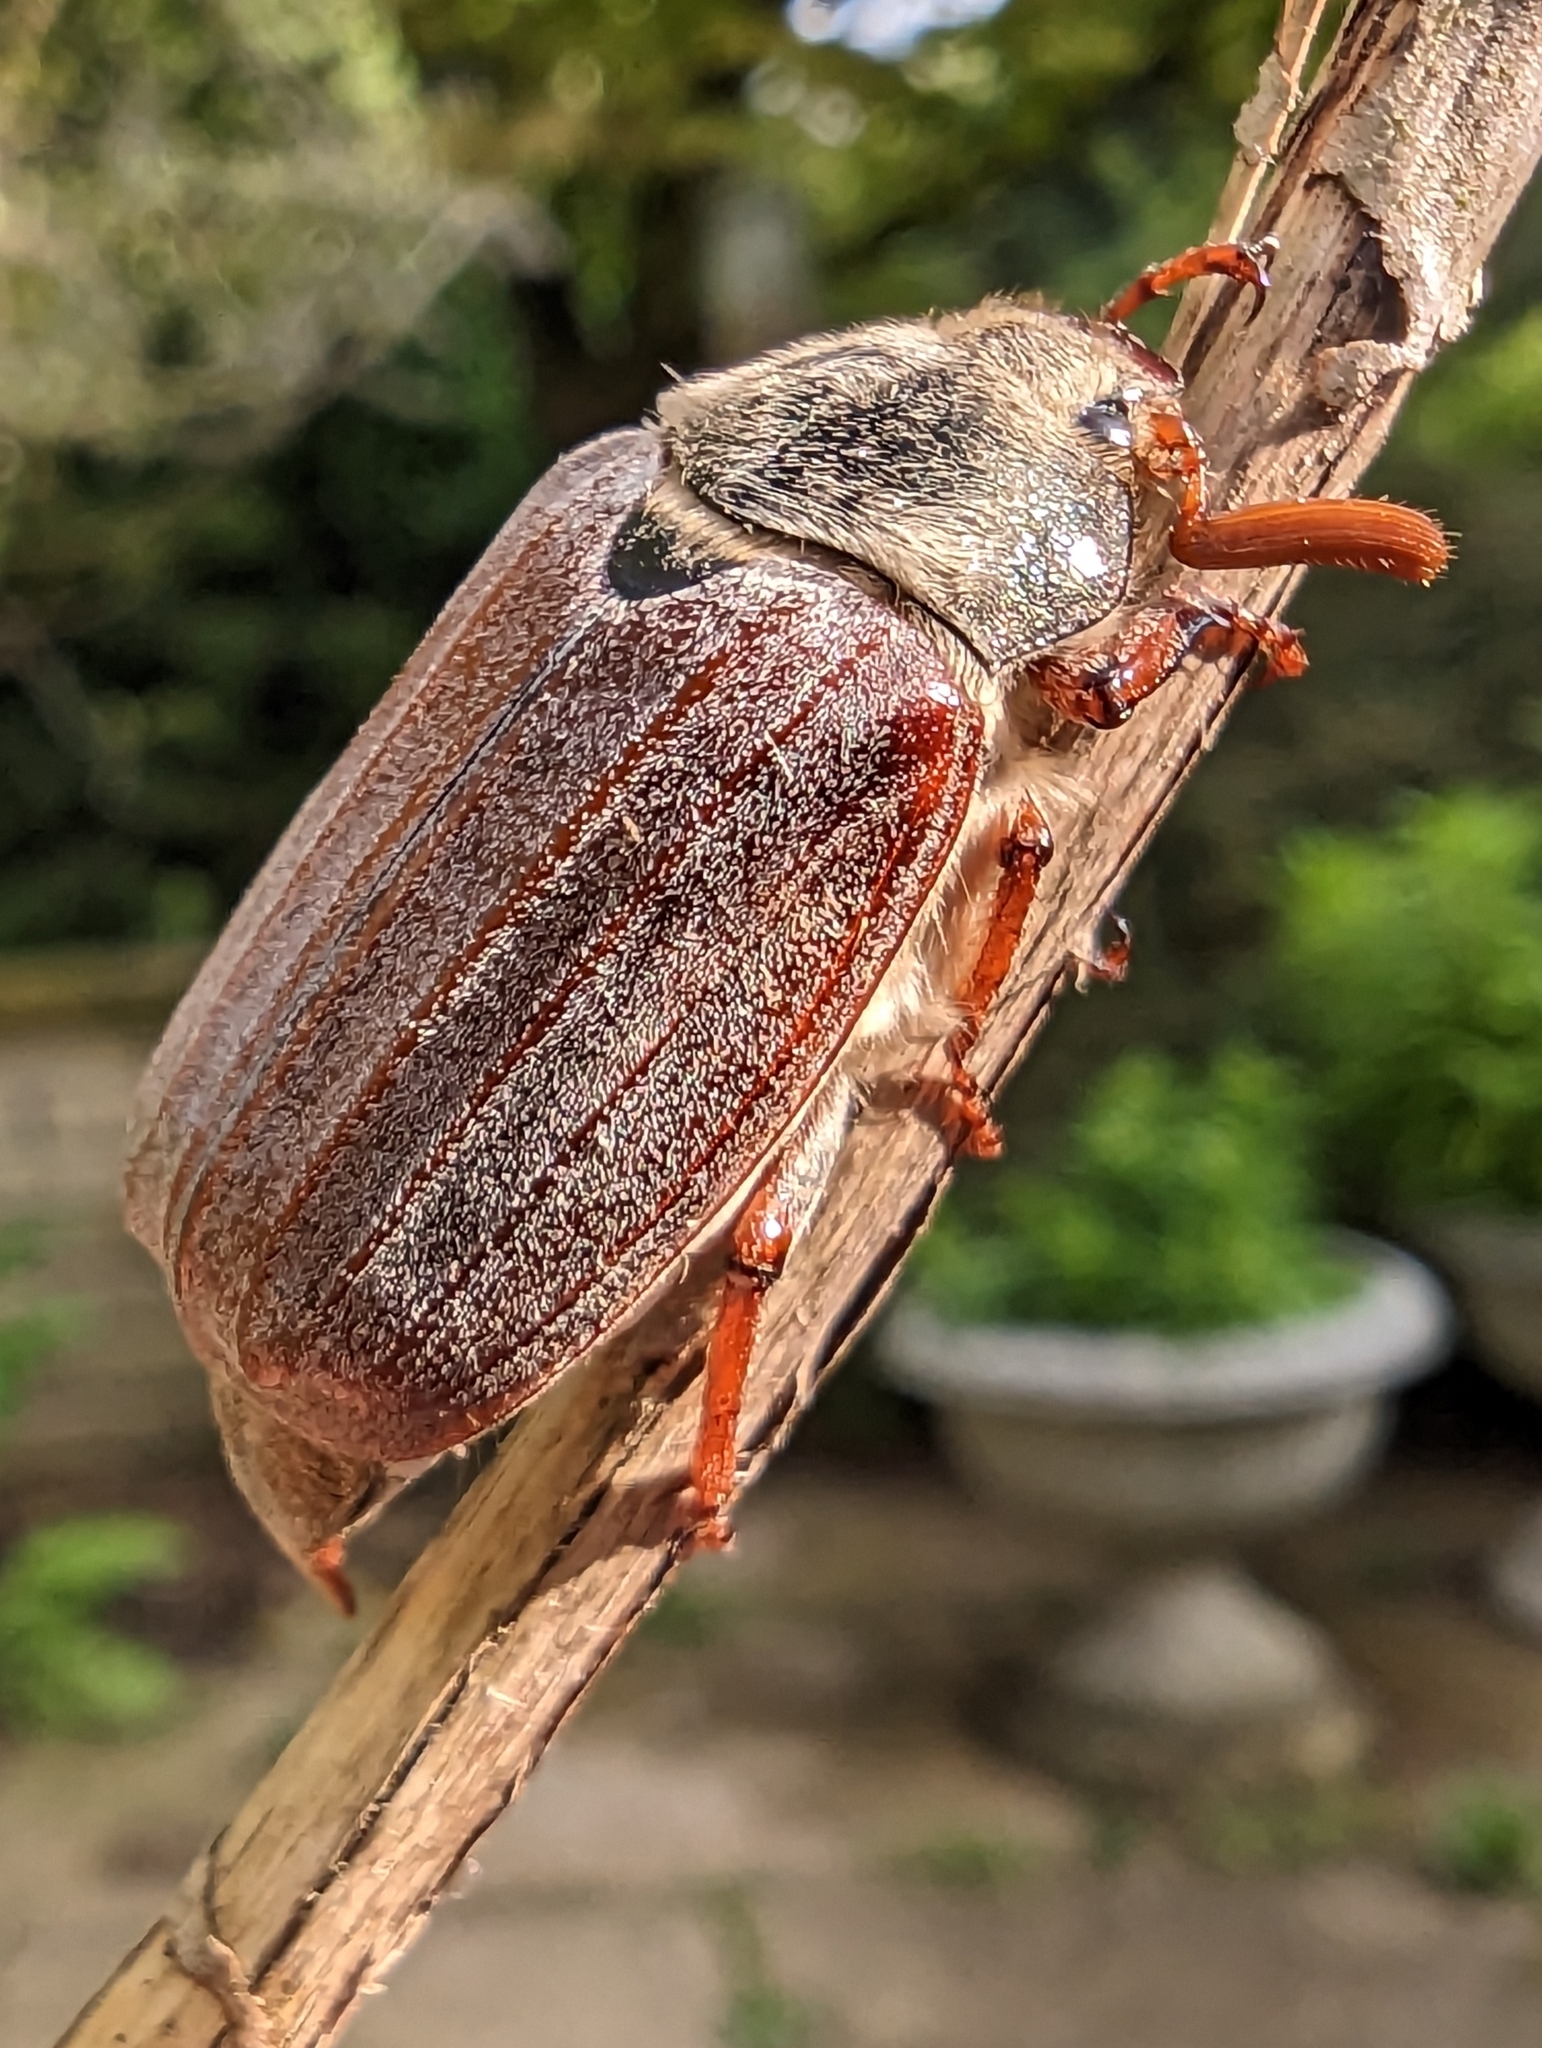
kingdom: Animalia
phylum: Arthropoda
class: Insecta
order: Coleoptera
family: Scarabaeidae
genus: Melolontha
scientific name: Melolontha melolontha
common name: Cockchafer maybeetle
